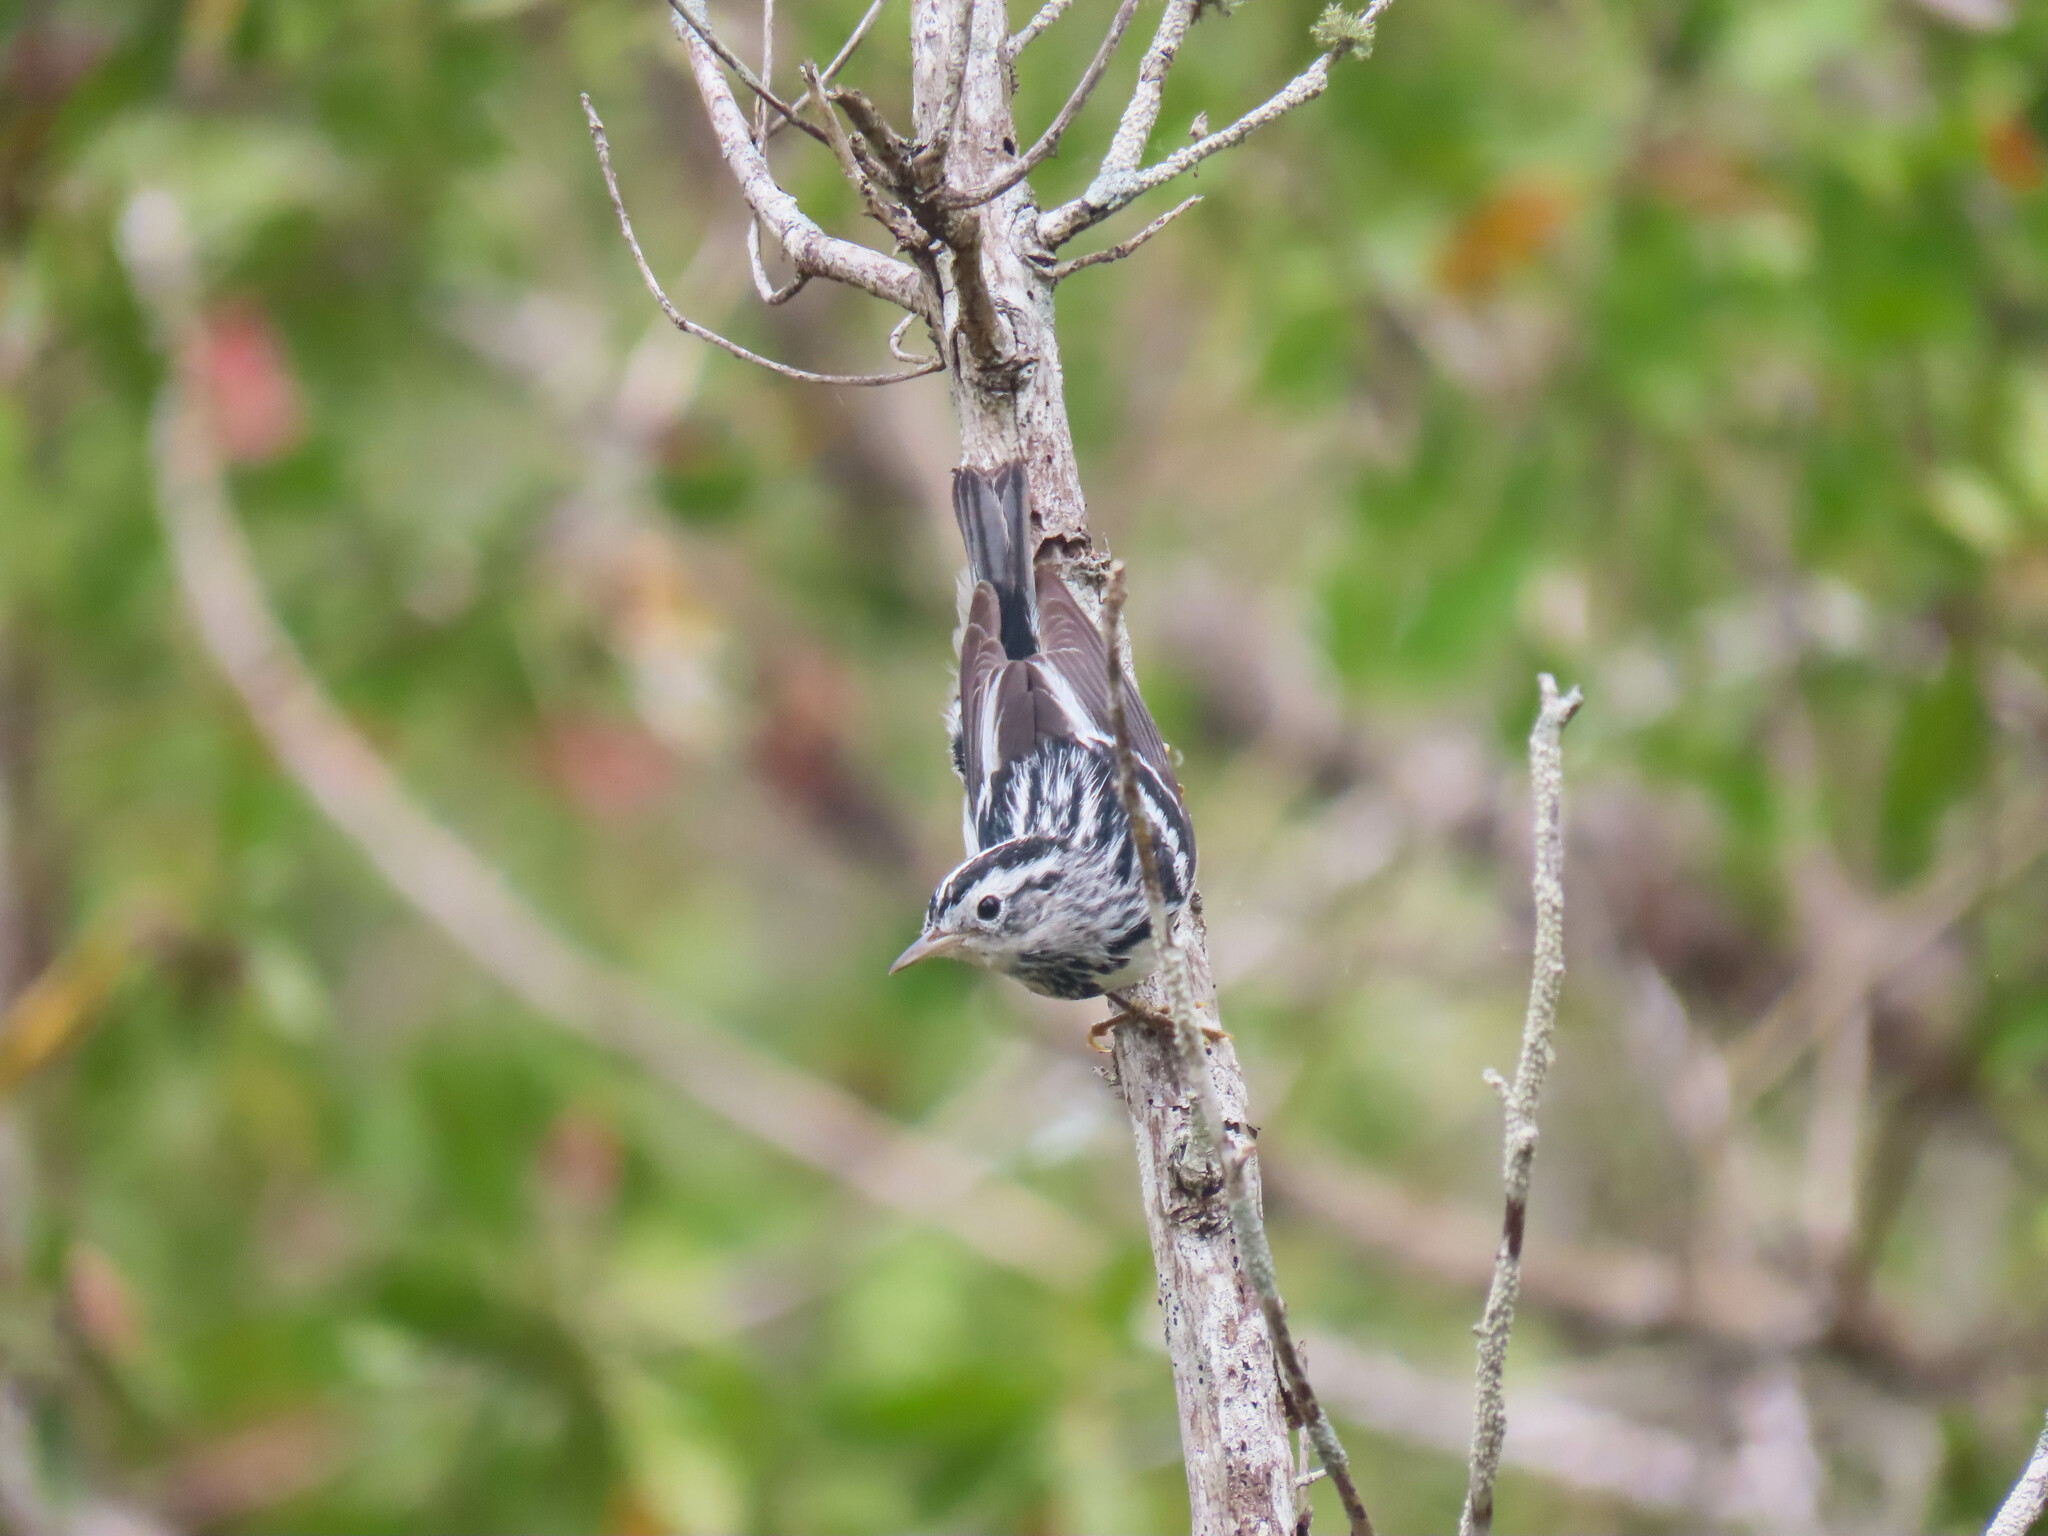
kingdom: Animalia
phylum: Chordata
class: Aves
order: Passeriformes
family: Parulidae
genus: Mniotilta
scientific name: Mniotilta varia
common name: Black-and-white warbler
